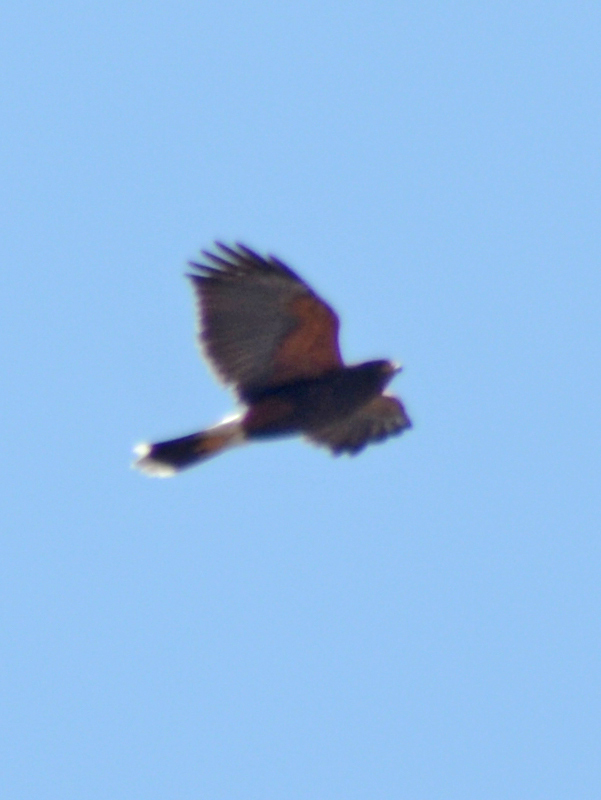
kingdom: Animalia
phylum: Chordata
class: Aves
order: Accipitriformes
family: Accipitridae
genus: Parabuteo
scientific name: Parabuteo unicinctus
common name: Harris's hawk
